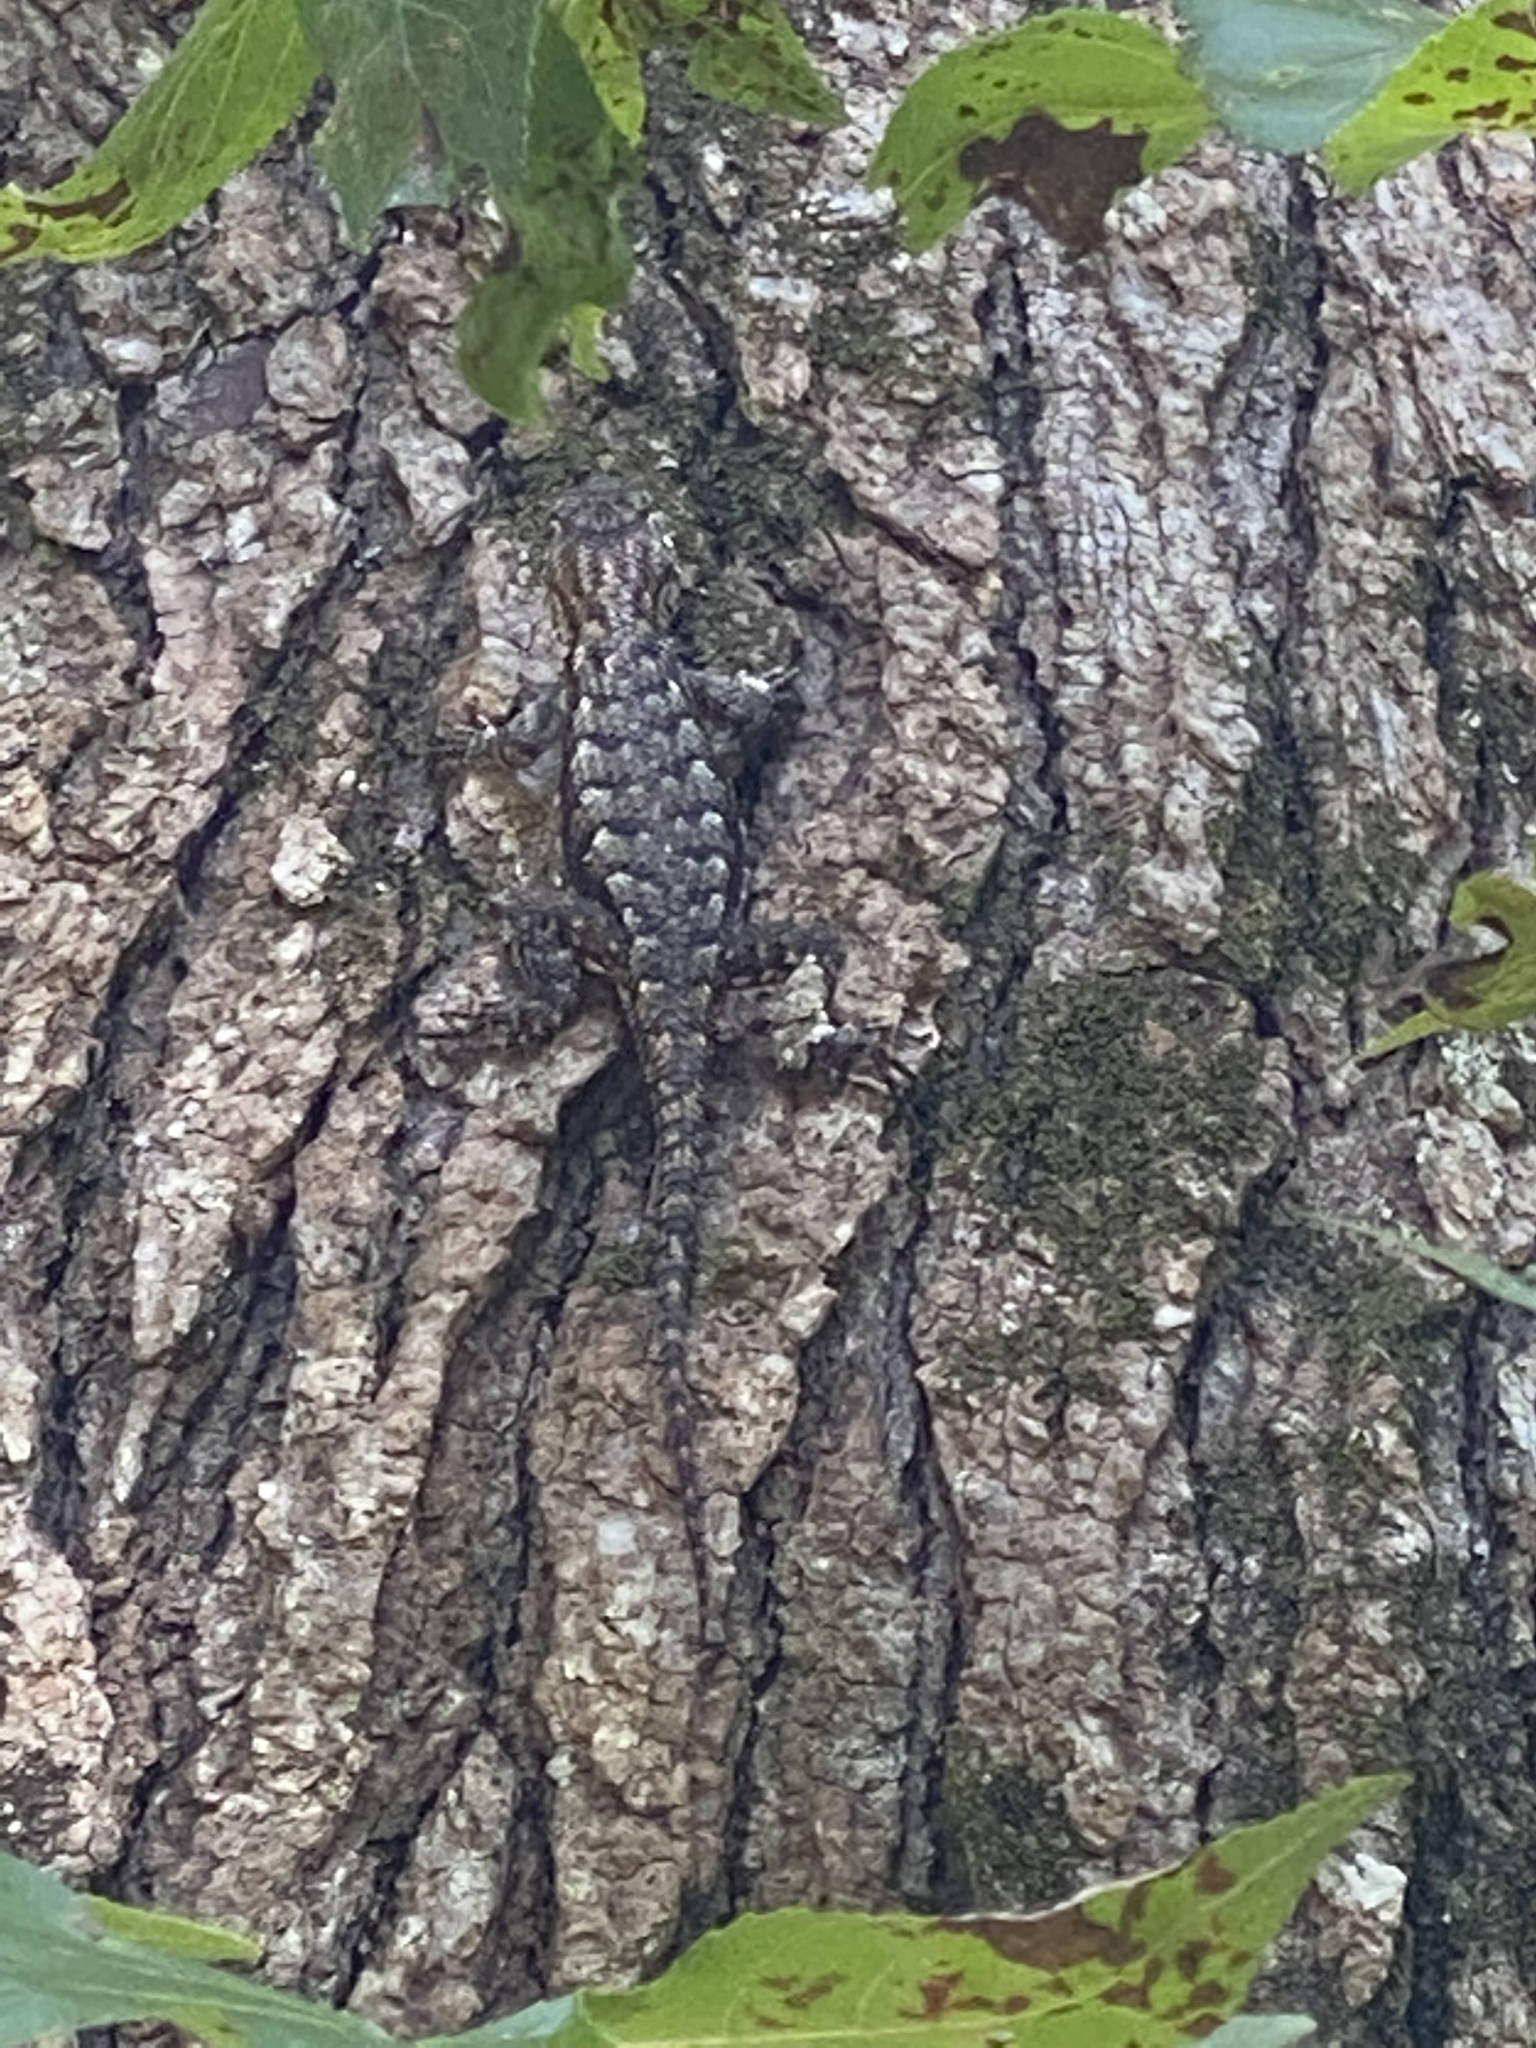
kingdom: Animalia
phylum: Chordata
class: Squamata
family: Phrynosomatidae
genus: Sceloporus
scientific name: Sceloporus undulatus
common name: Eastern fence lizard
